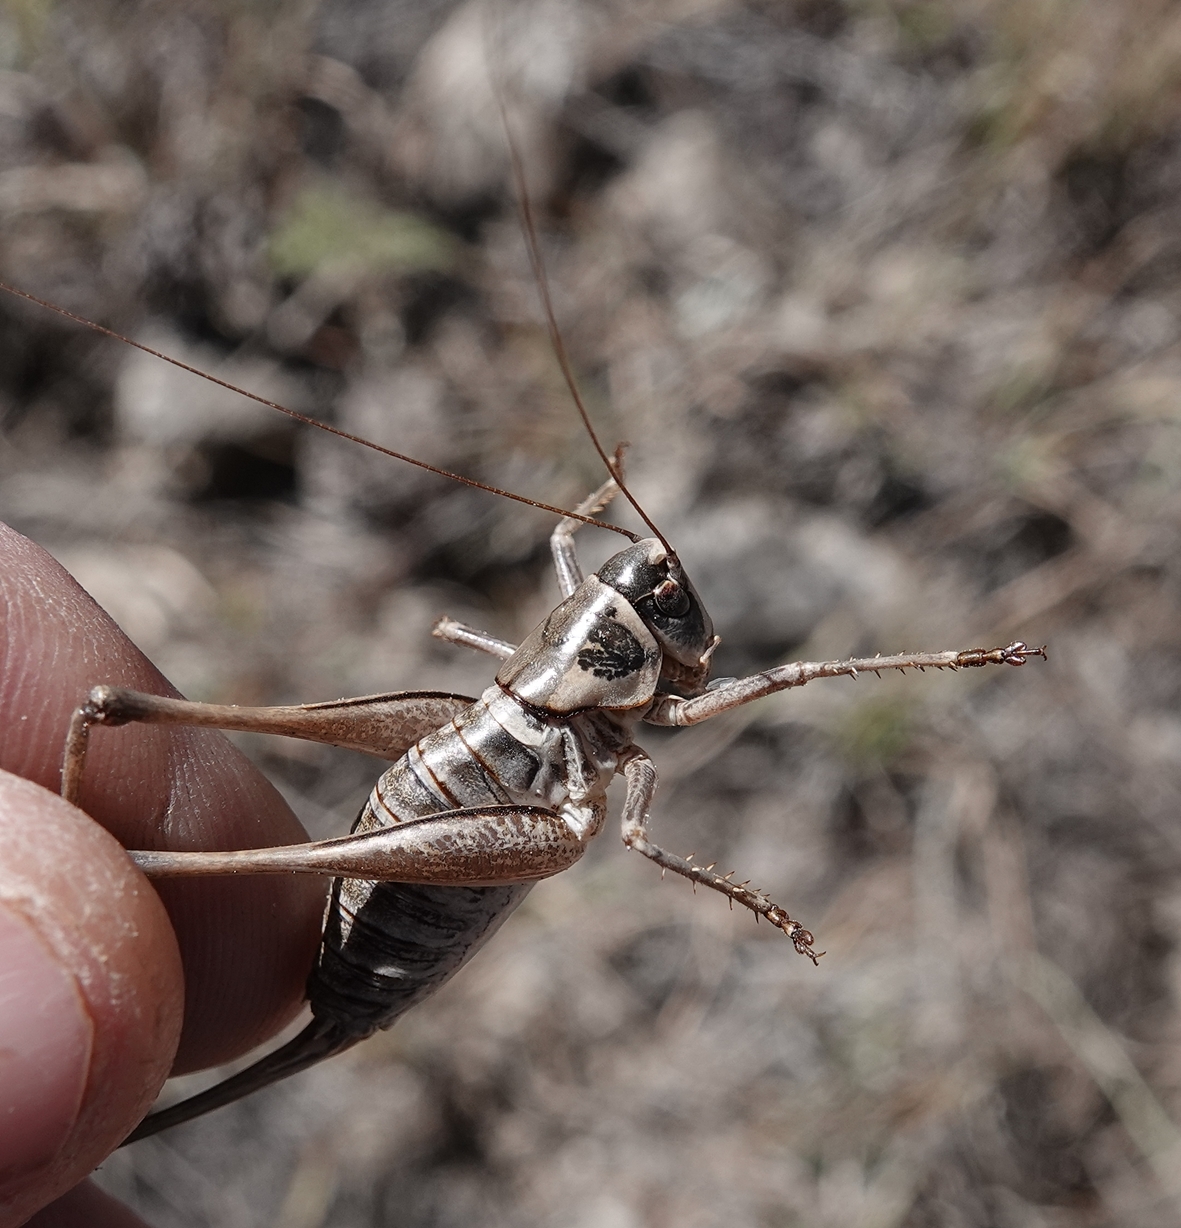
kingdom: Animalia
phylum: Arthropoda
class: Insecta
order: Orthoptera
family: Tettigoniidae
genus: Pediodectes
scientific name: Pediodectes stevensonii
